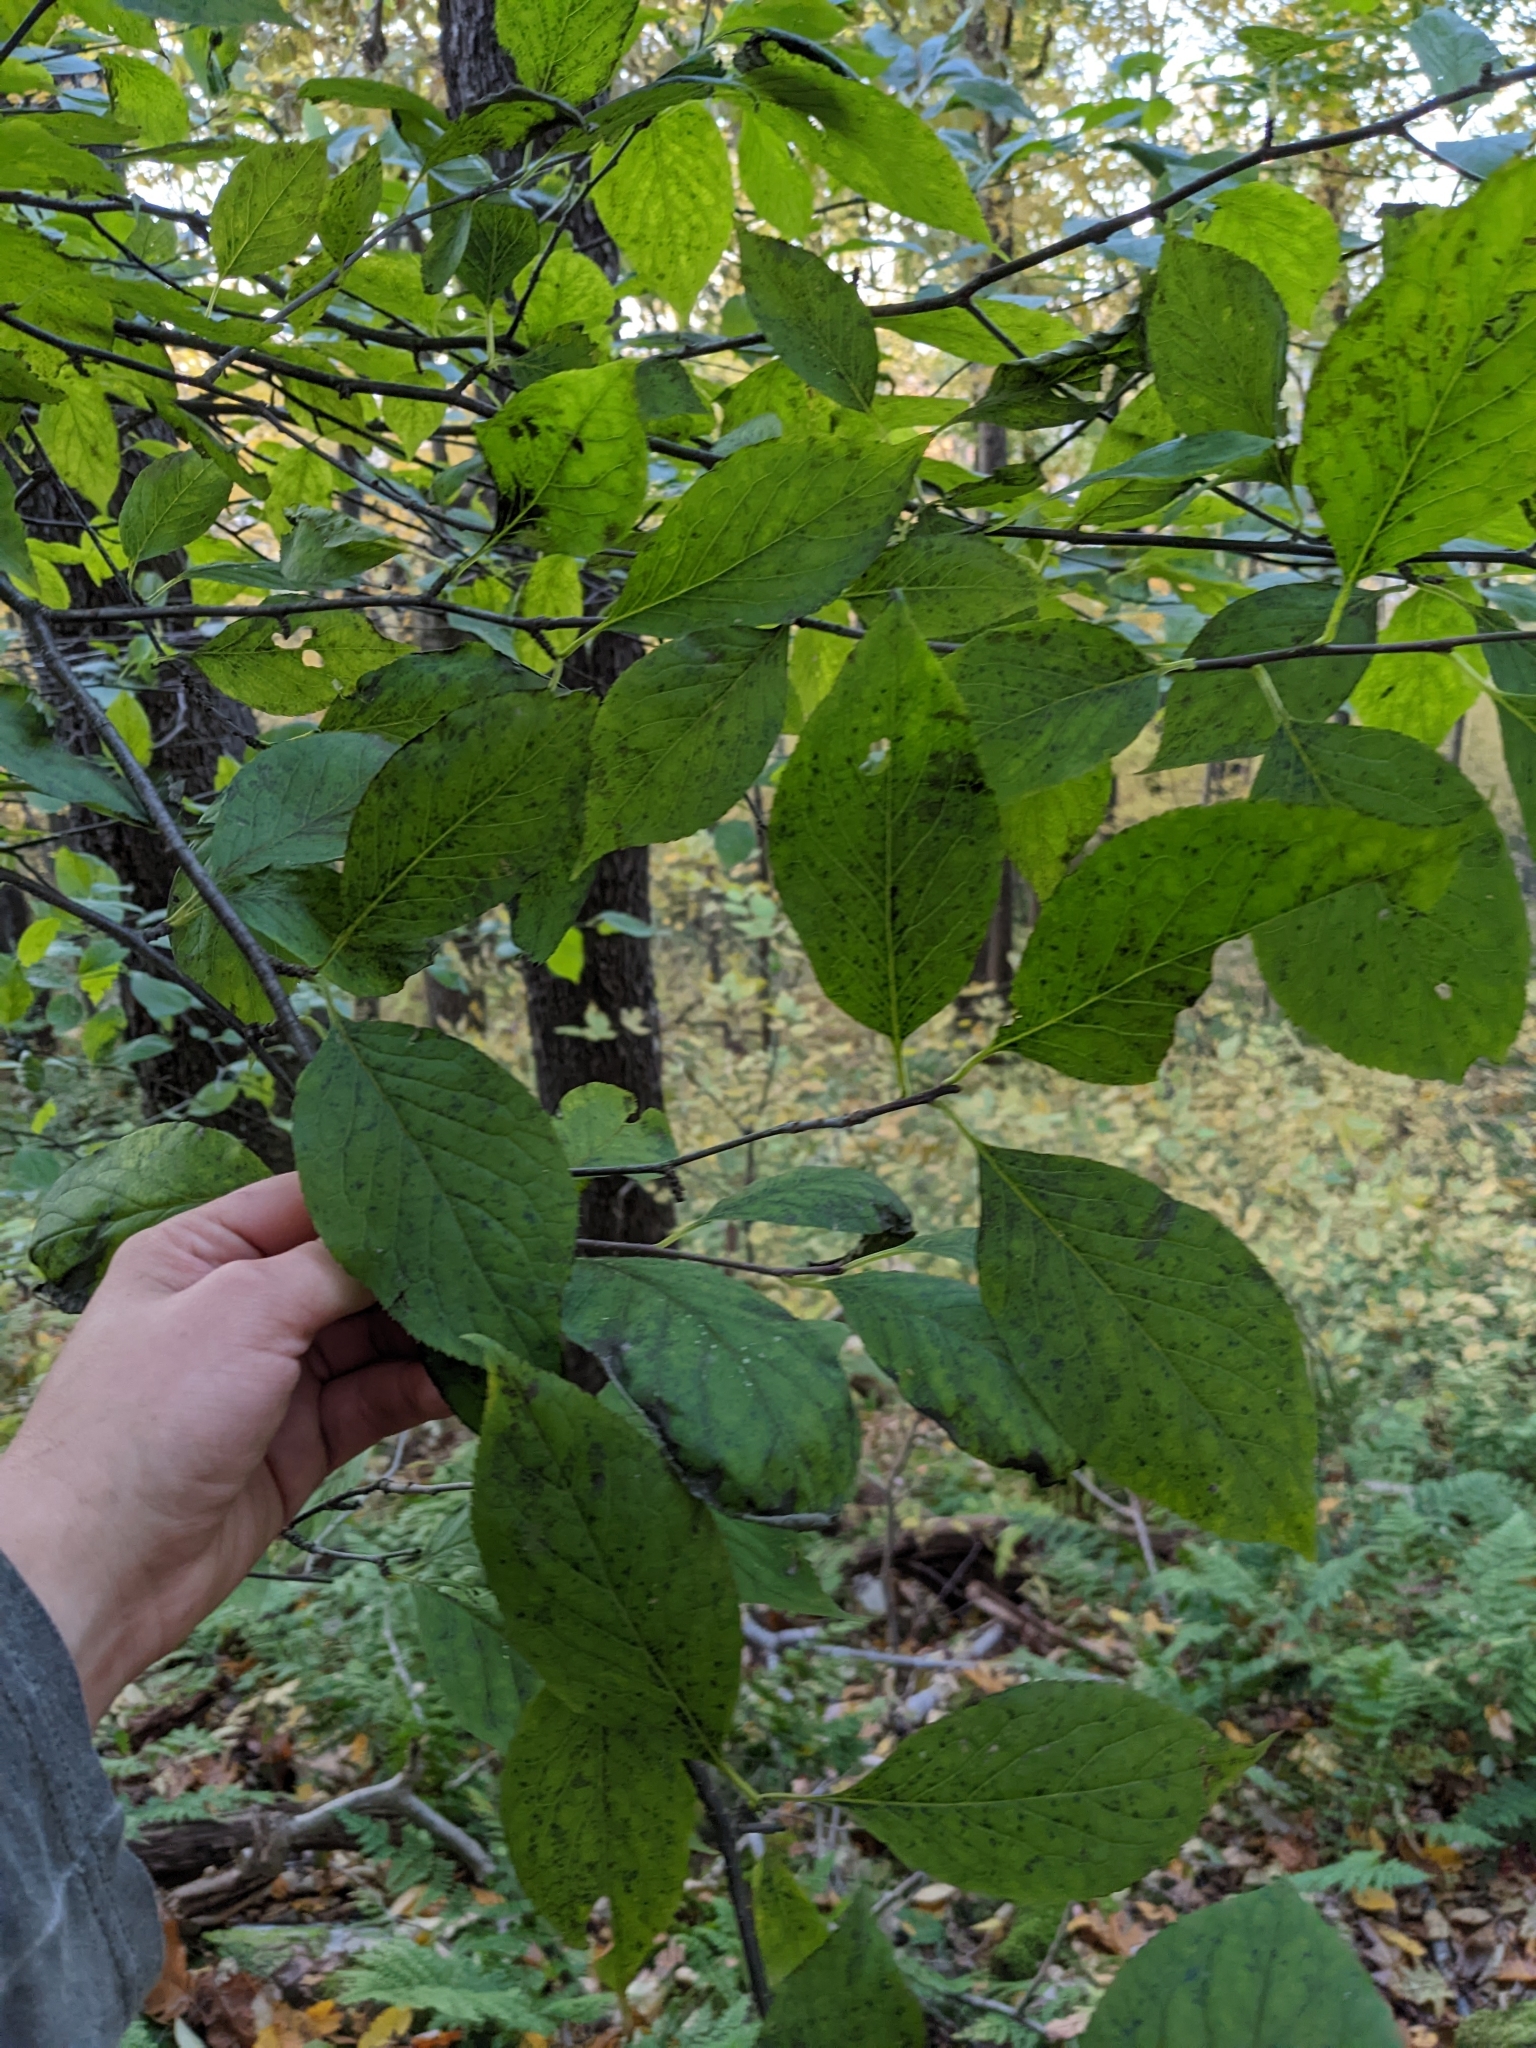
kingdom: Plantae
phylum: Tracheophyta
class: Magnoliopsida
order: Aquifoliales
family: Aquifoliaceae
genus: Ilex
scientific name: Ilex montana
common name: Mountain winterberry
